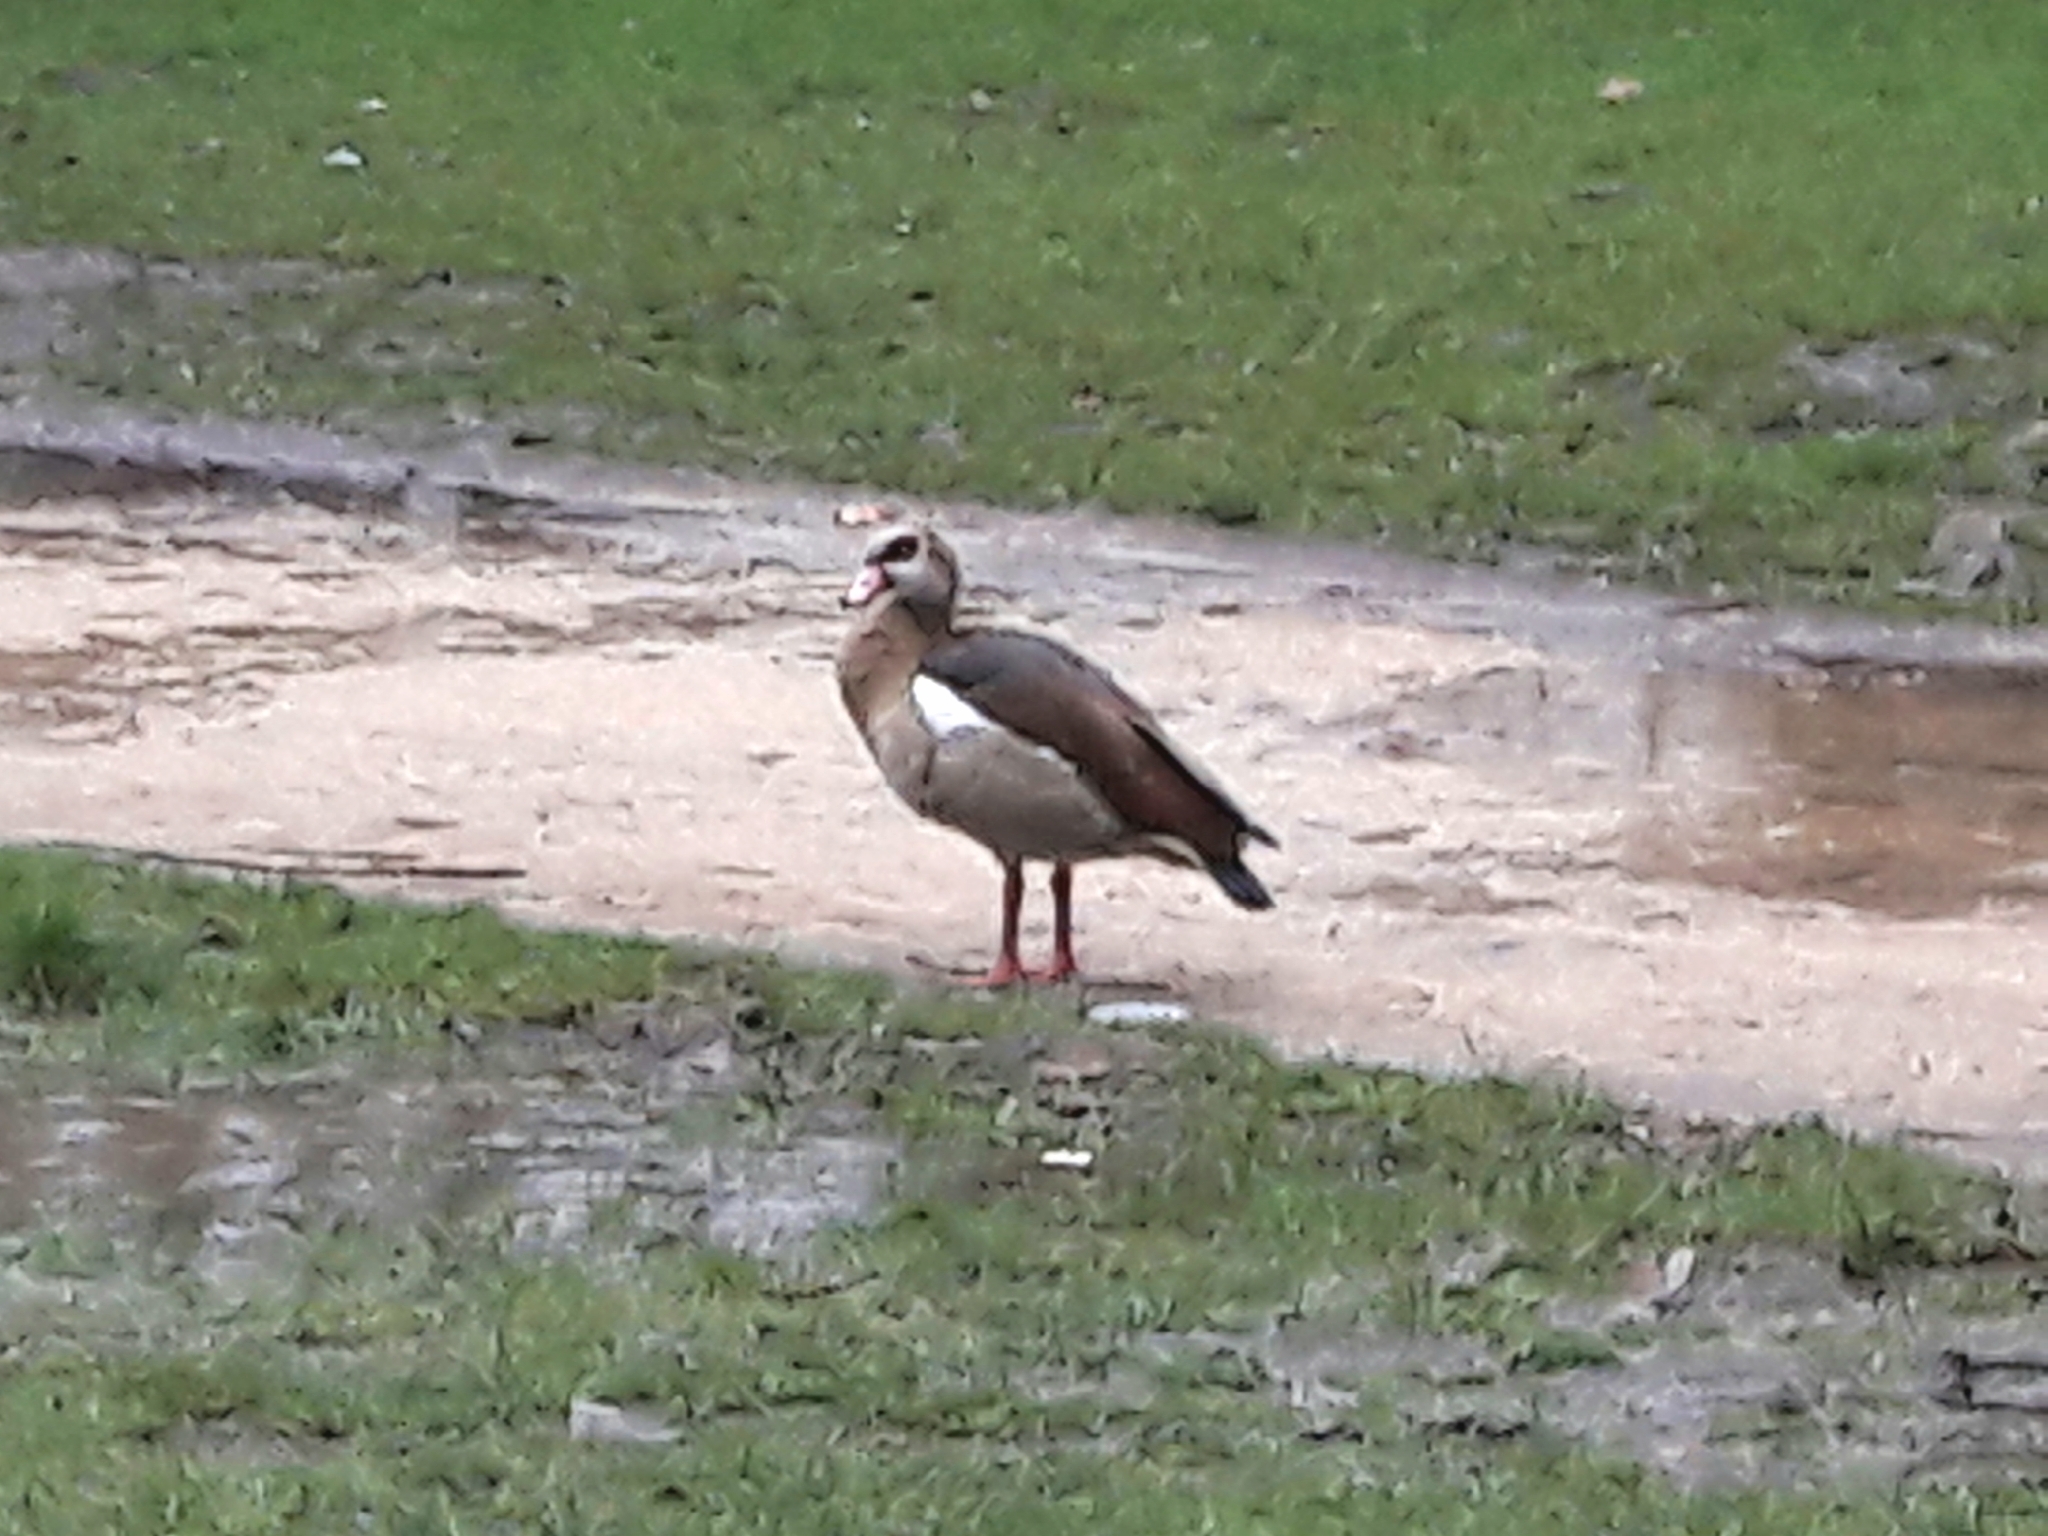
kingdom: Animalia
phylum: Chordata
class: Aves
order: Anseriformes
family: Anatidae
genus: Alopochen
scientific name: Alopochen aegyptiaca
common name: Egyptian goose
